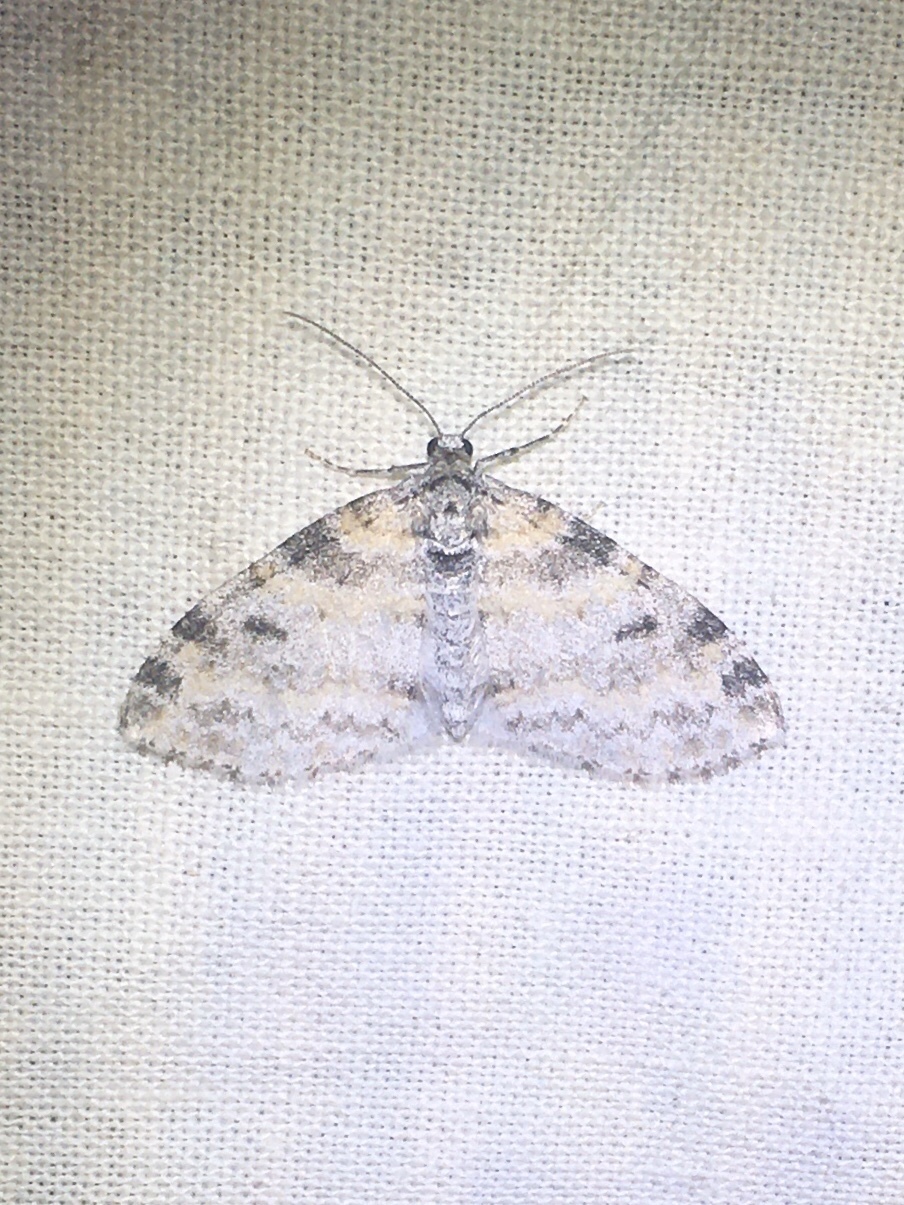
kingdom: Animalia
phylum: Arthropoda
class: Insecta
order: Lepidoptera
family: Geometridae
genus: Lobophora
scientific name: Lobophora nivigerata
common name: Powdered bigwing
